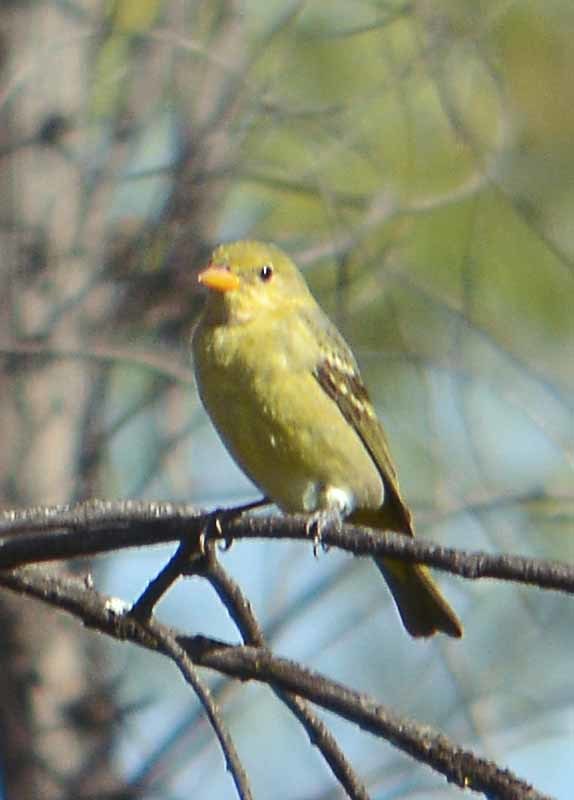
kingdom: Animalia
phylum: Chordata
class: Aves
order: Passeriformes
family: Cardinalidae
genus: Piranga
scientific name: Piranga ludoviciana
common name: Western tanager
